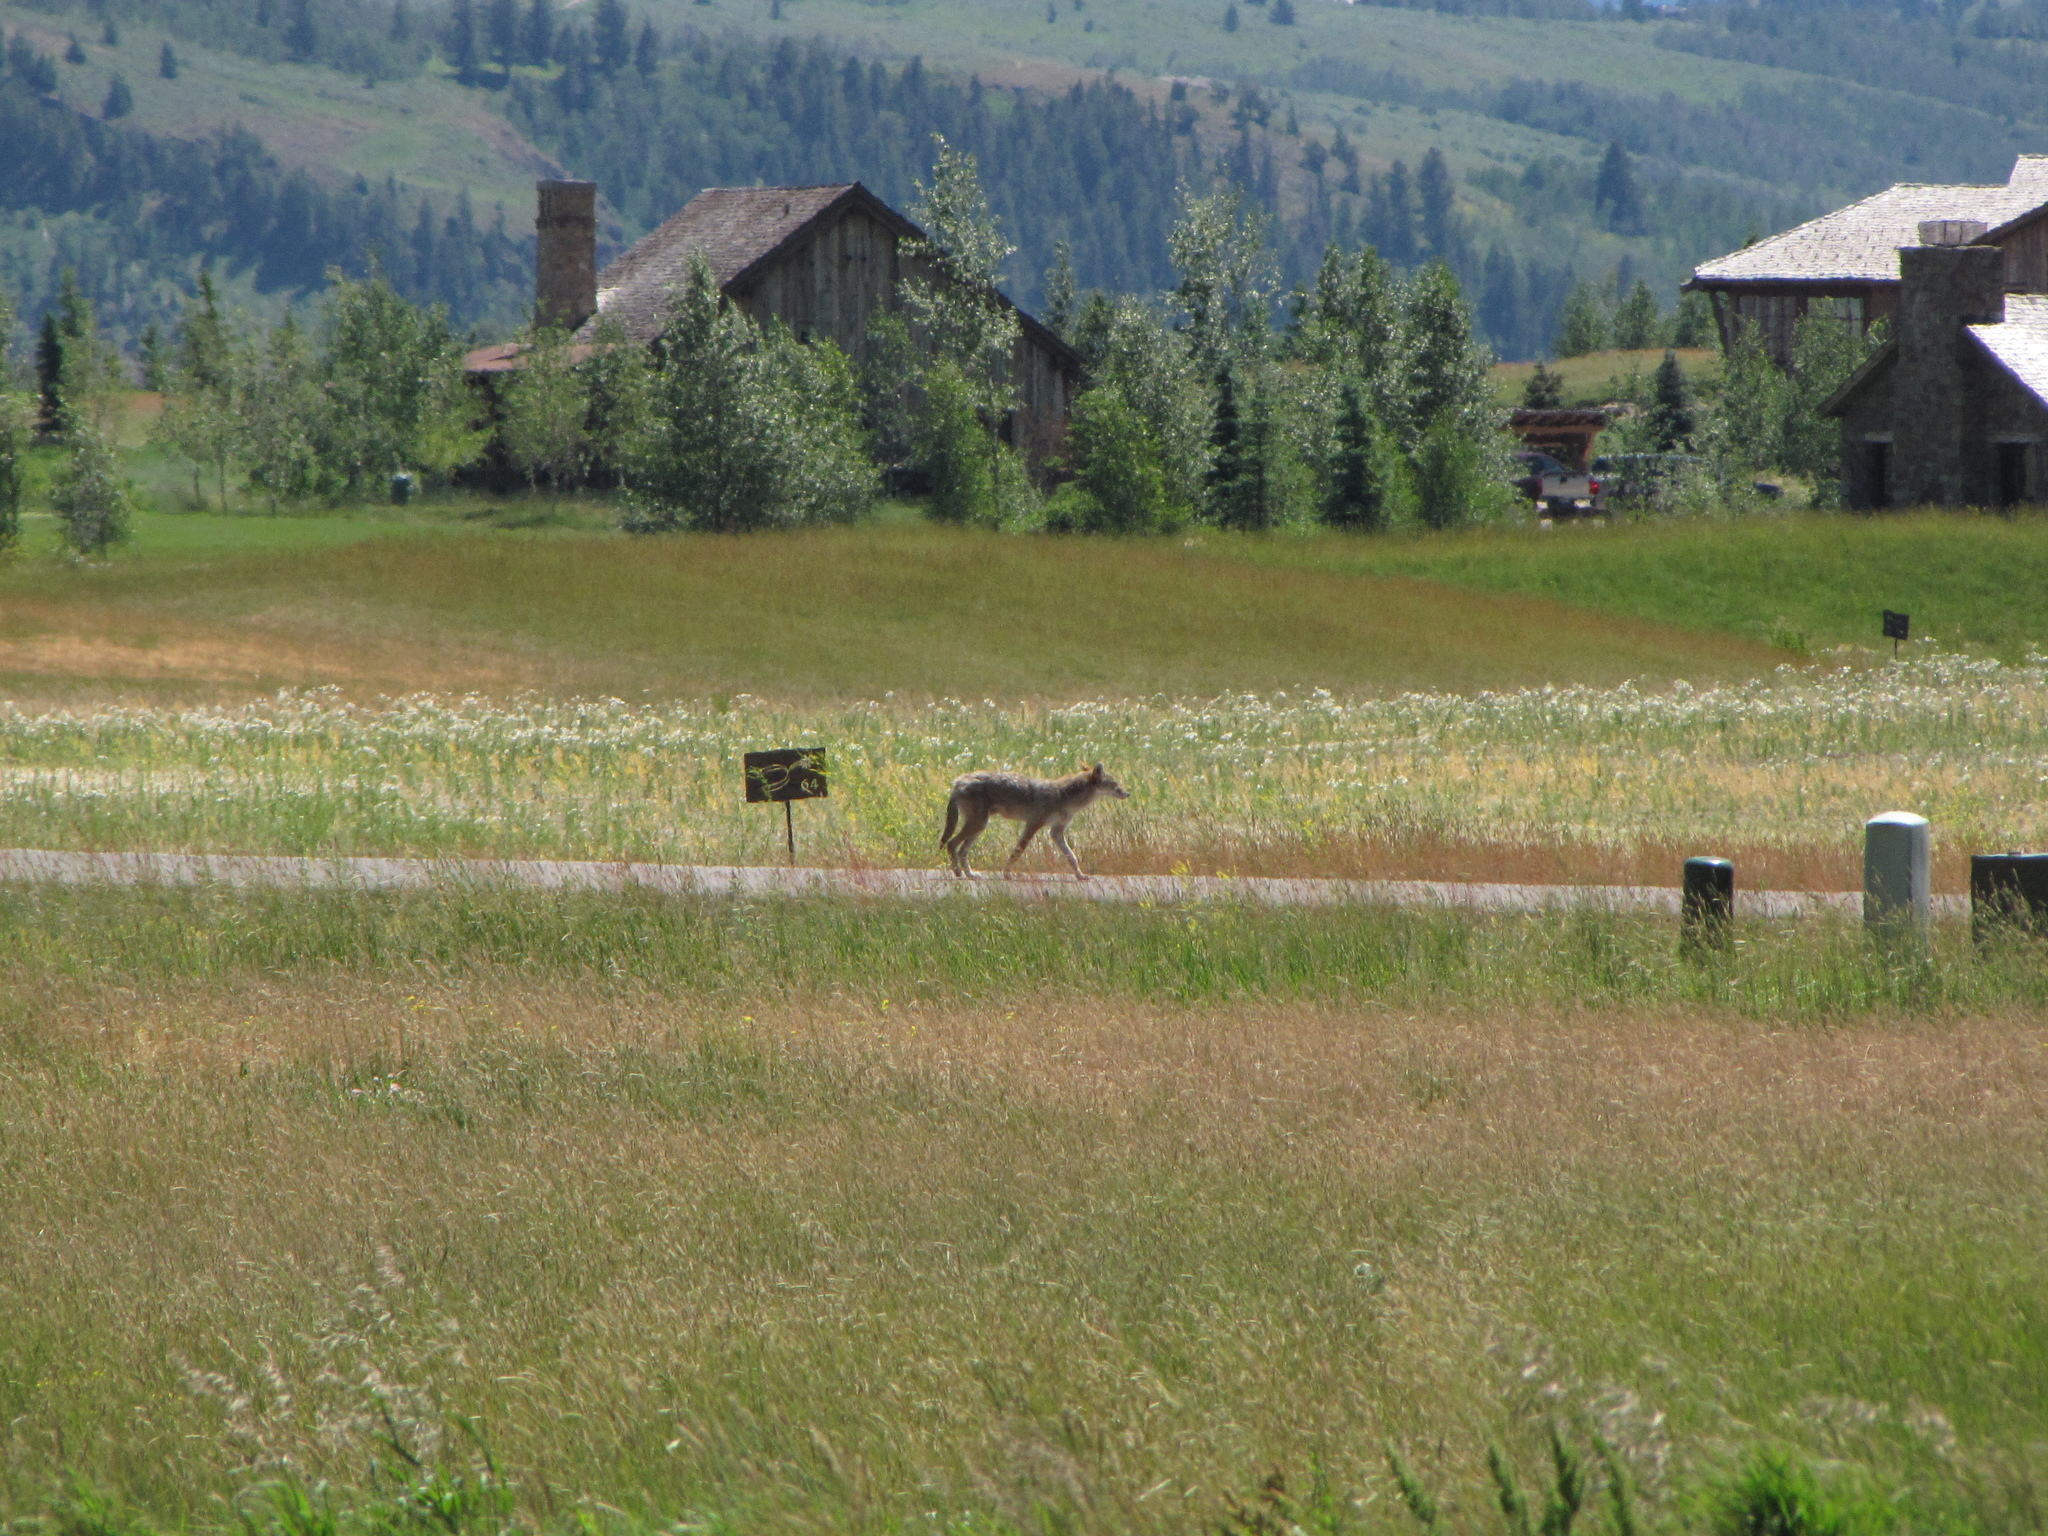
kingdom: Animalia
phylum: Chordata
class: Mammalia
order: Carnivora
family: Canidae
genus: Canis
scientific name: Canis latrans
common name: Coyote
